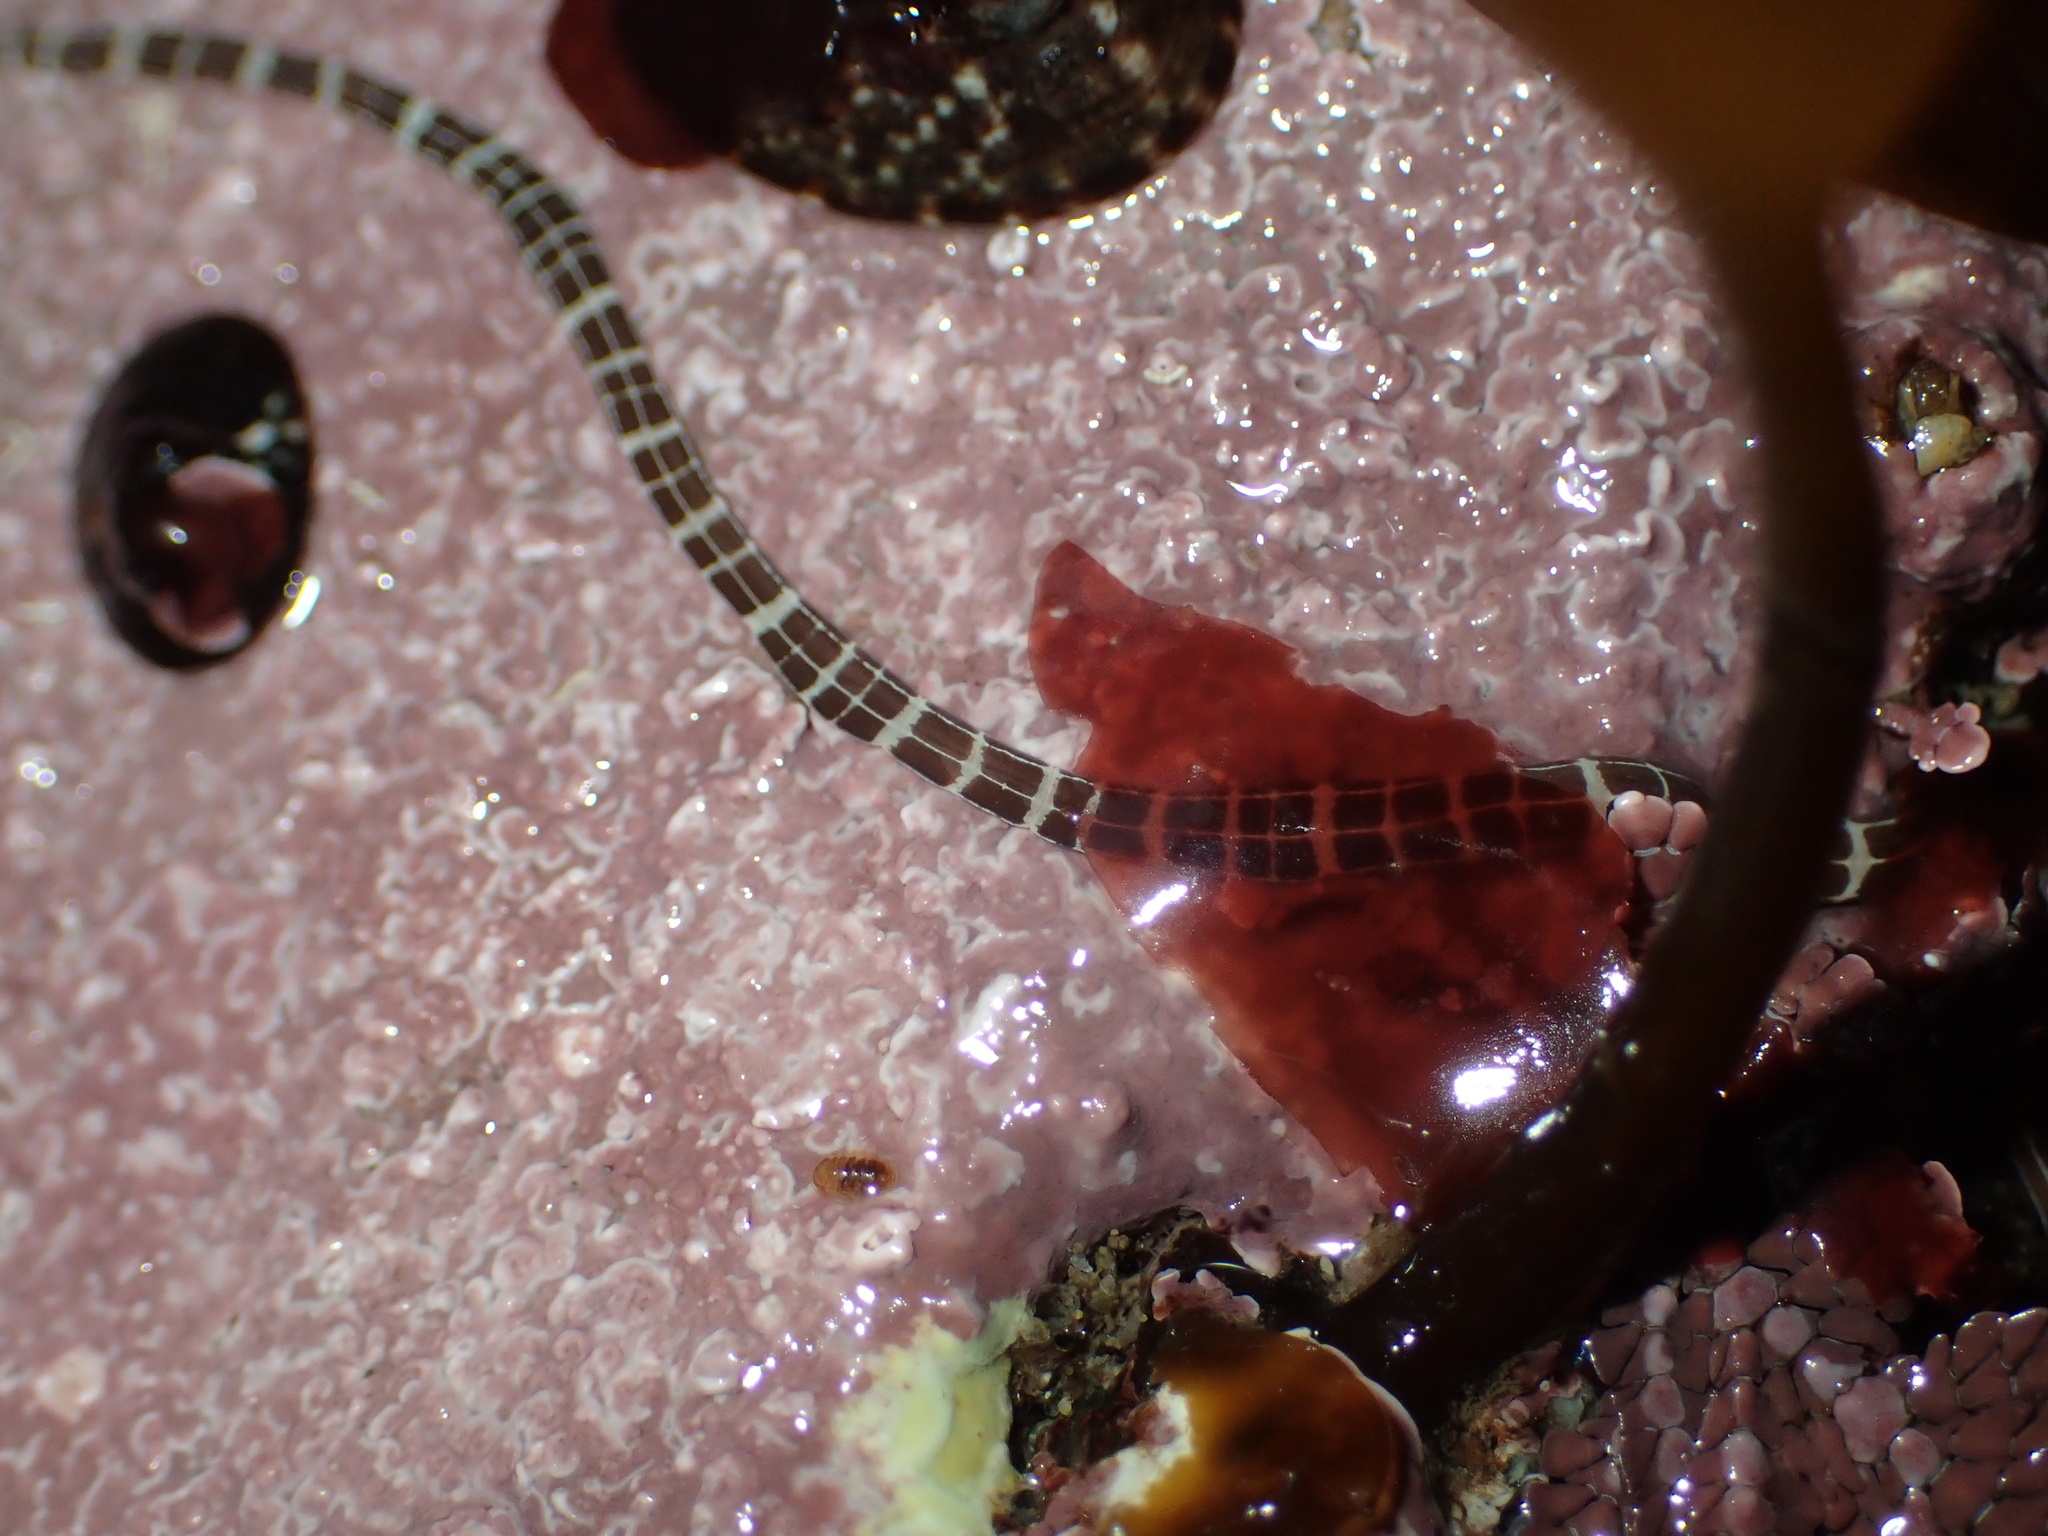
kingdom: Animalia
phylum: Nemertea
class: Palaeonemertea
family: Tubulanidae
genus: Tubulanus
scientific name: Tubulanus sexlineatus
